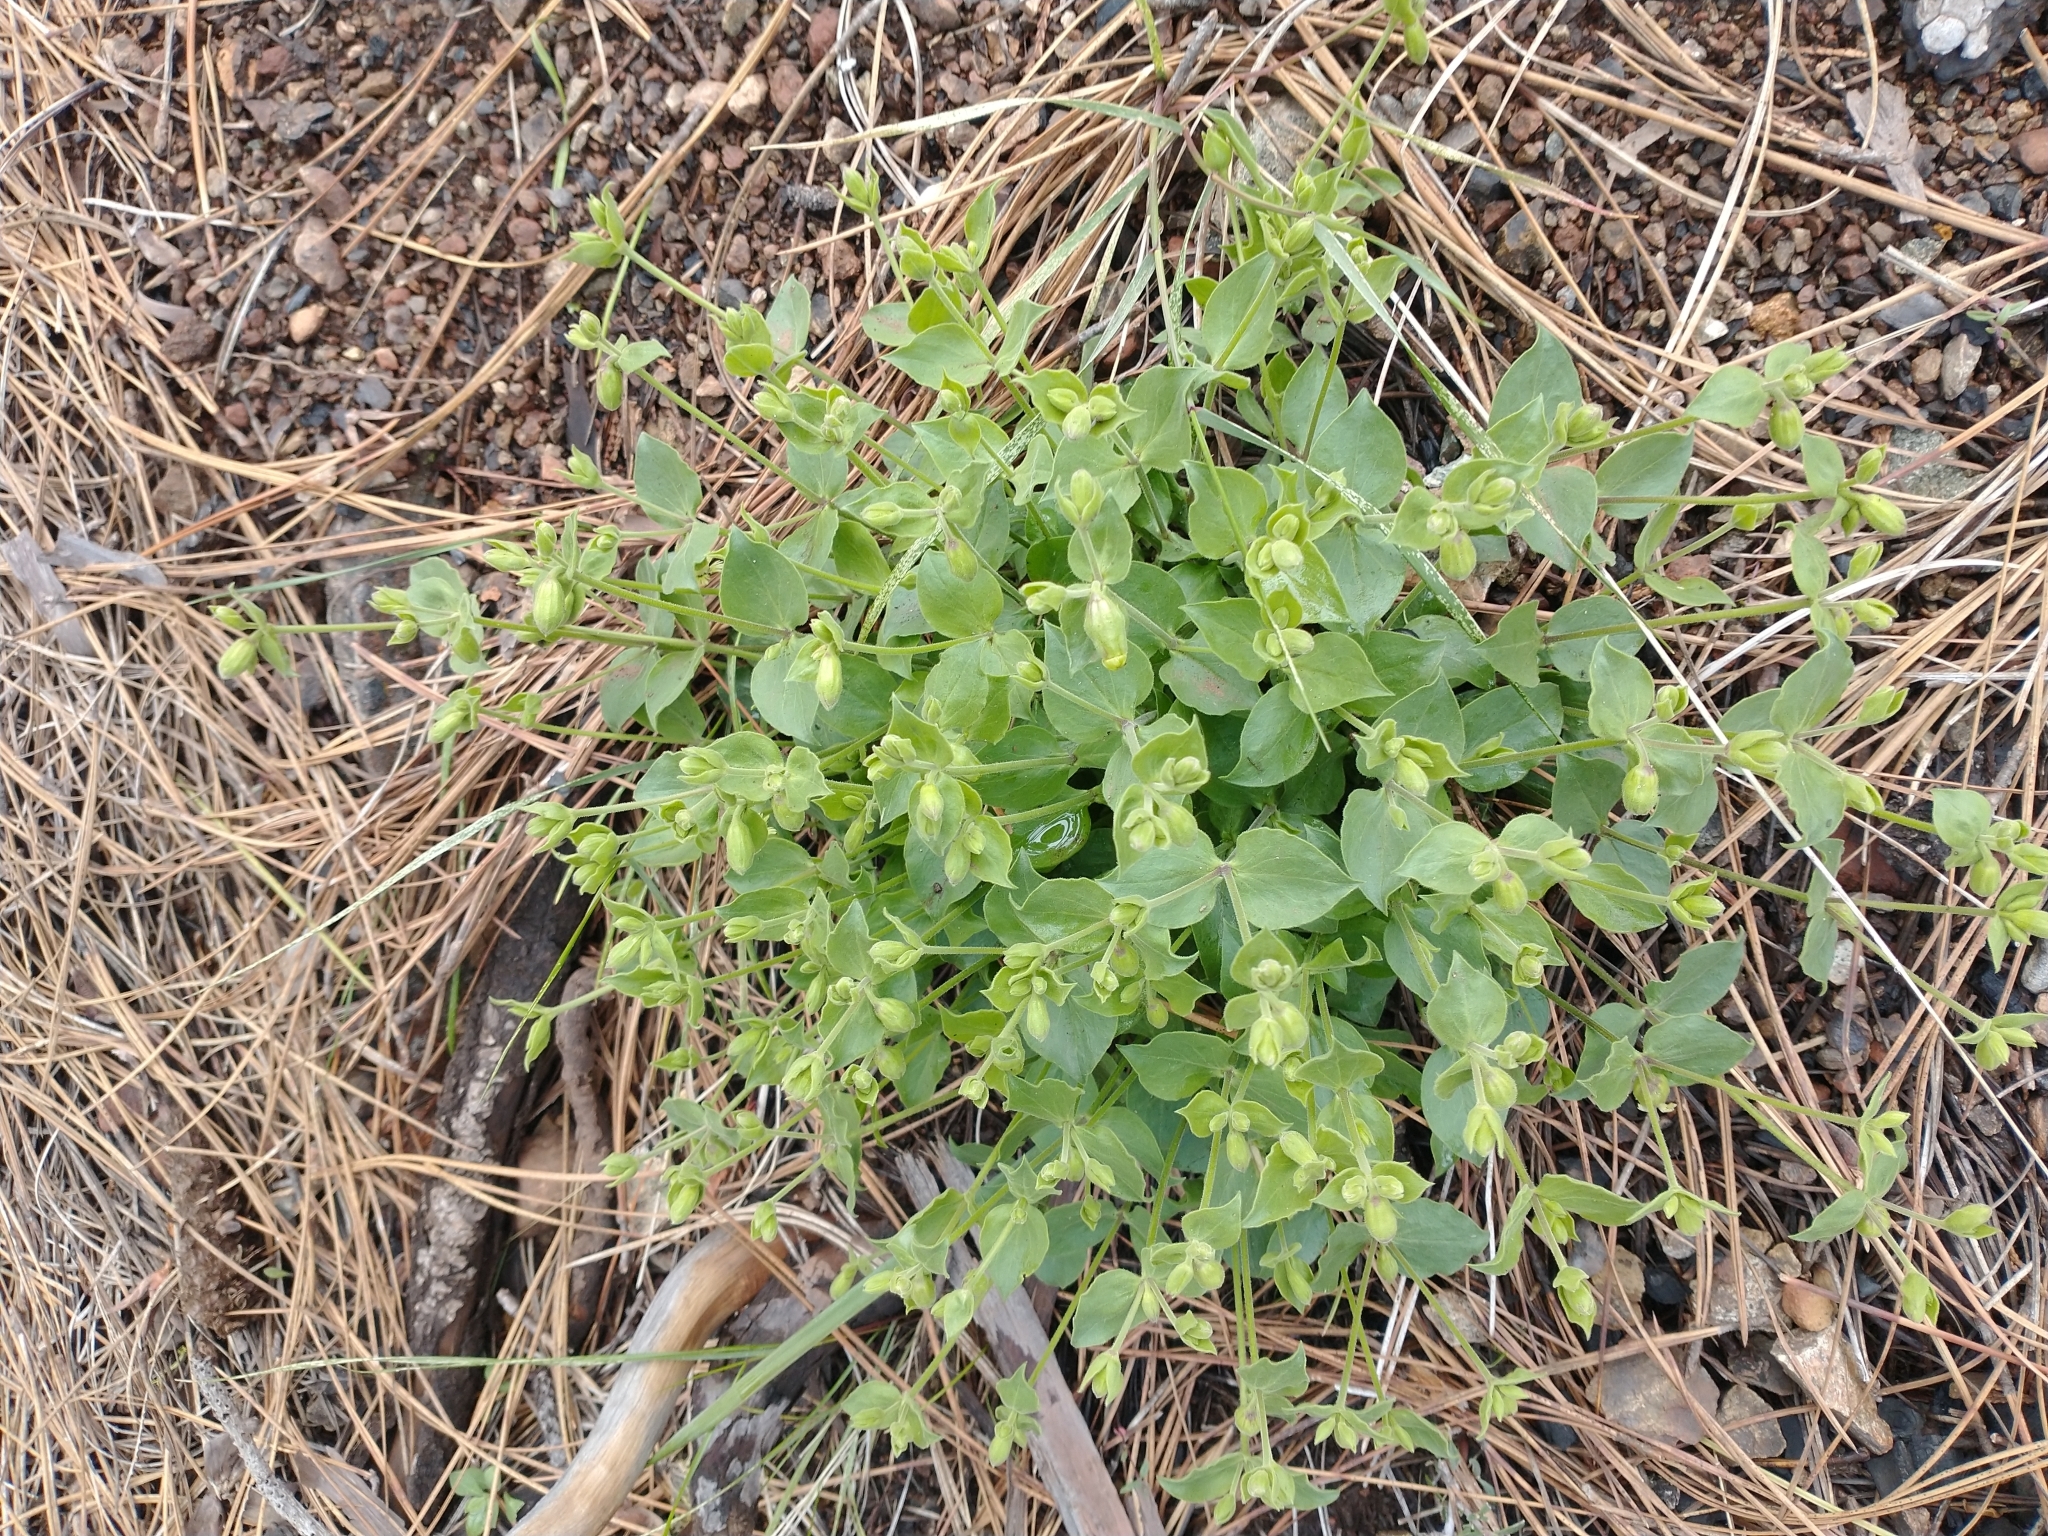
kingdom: Plantae
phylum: Tracheophyta
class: Magnoliopsida
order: Caryophyllales
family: Caryophyllaceae
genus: Silene
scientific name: Silene greenei
